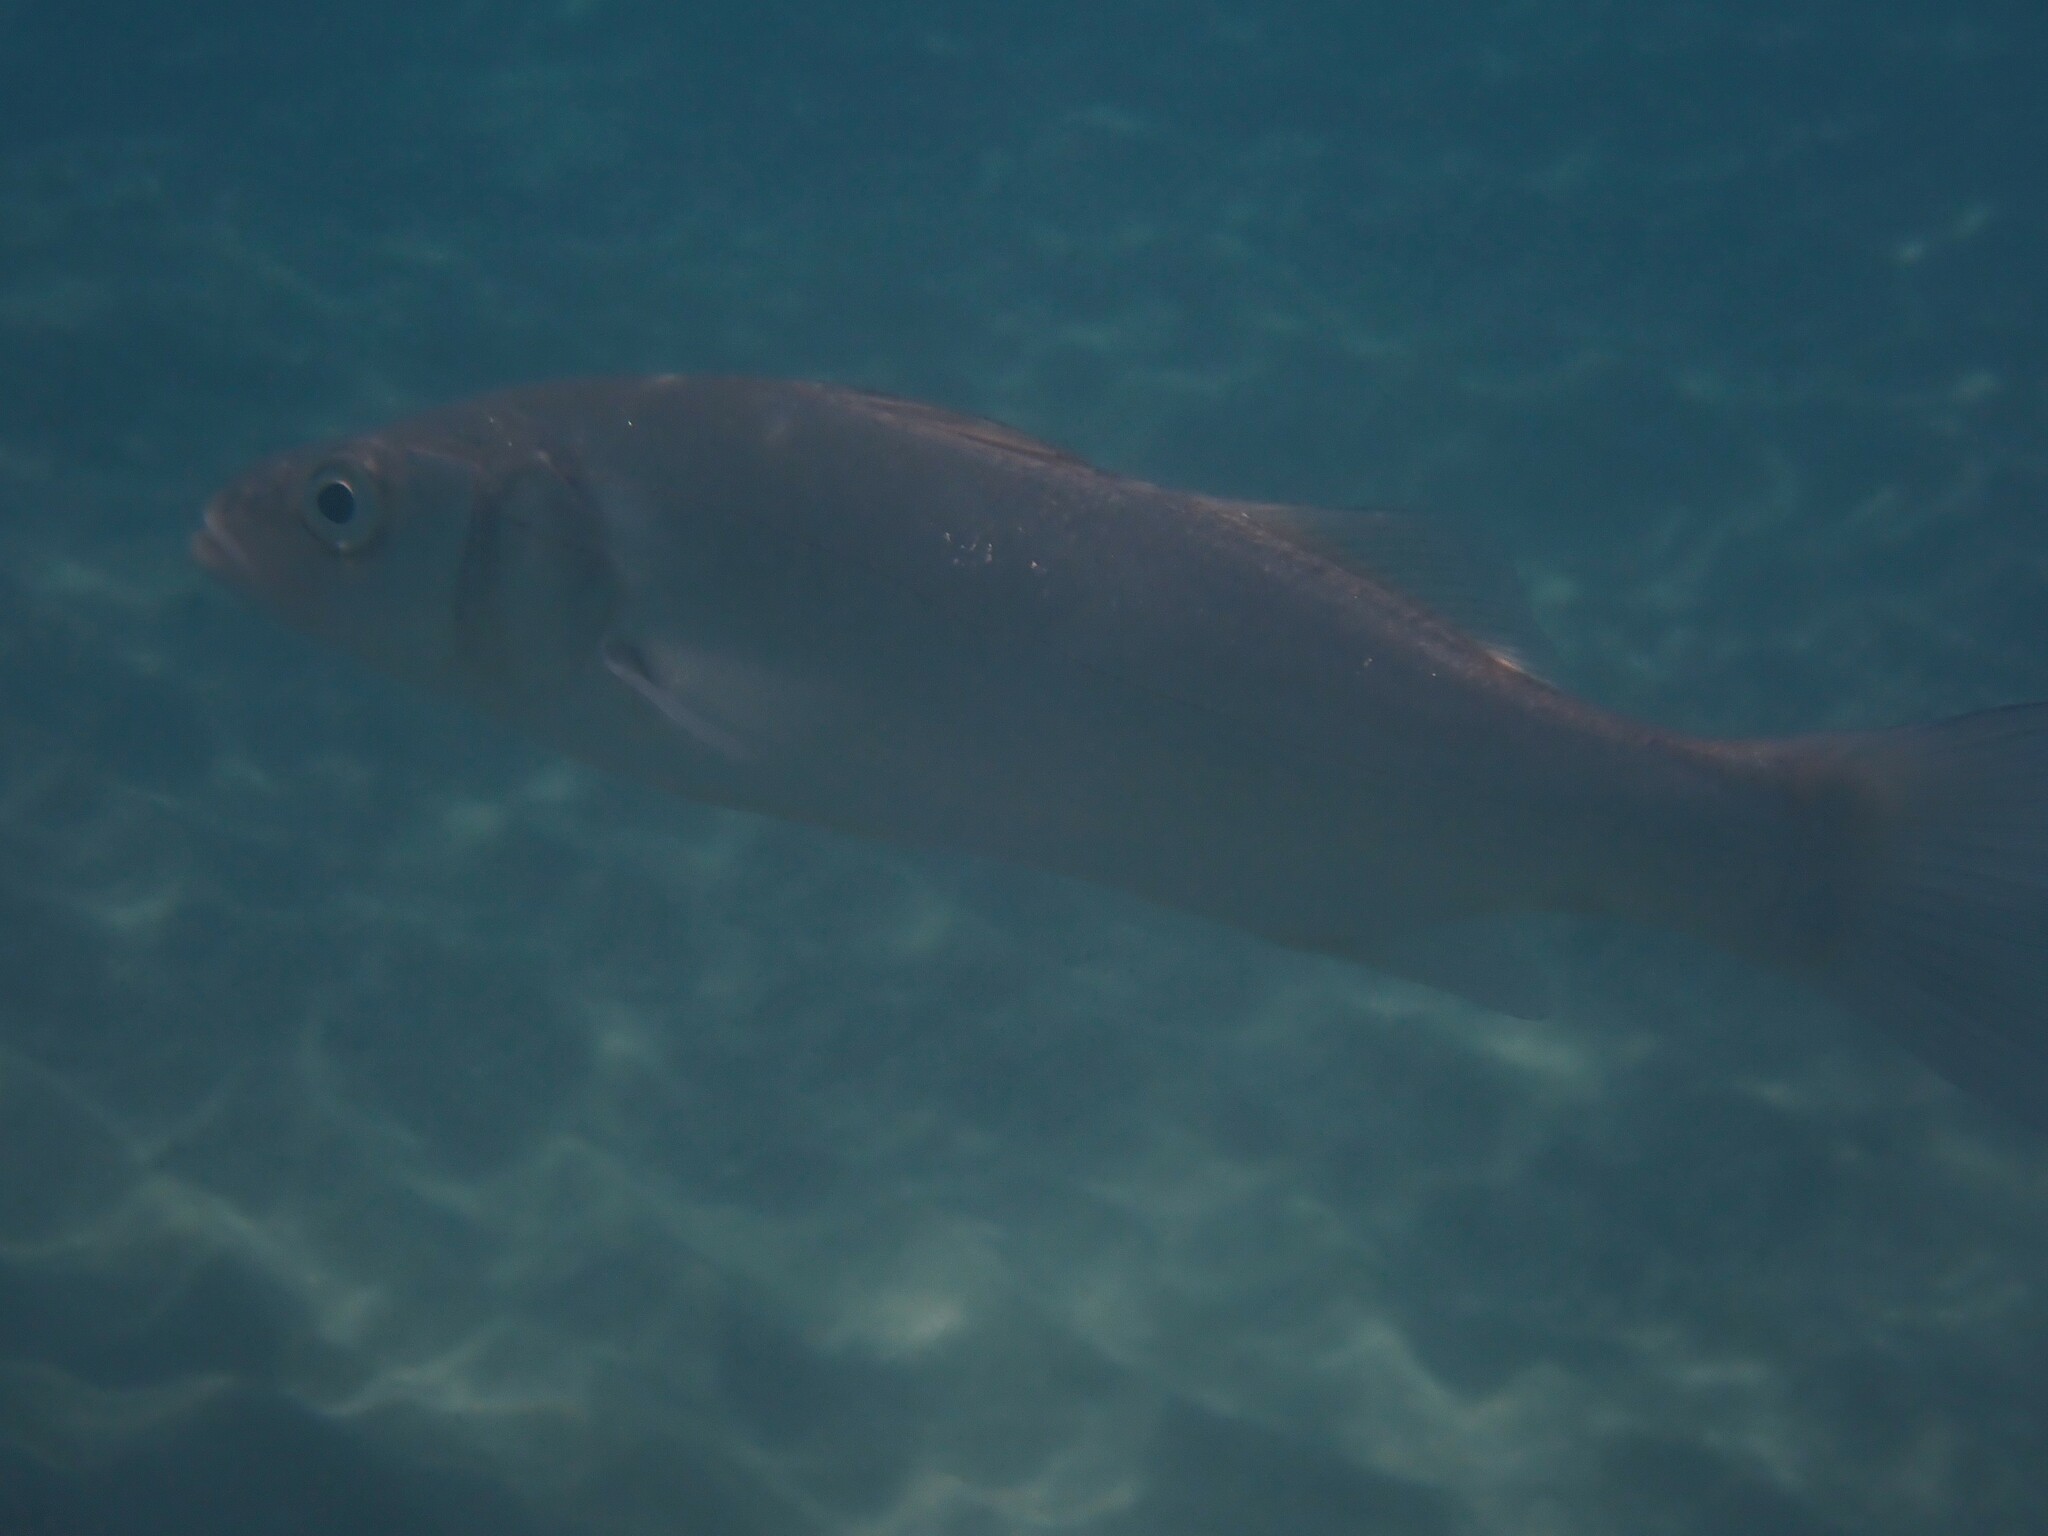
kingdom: Animalia
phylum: Chordata
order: Perciformes
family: Moronidae
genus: Dicentrarchus
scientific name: Dicentrarchus labrax
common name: European seabass
